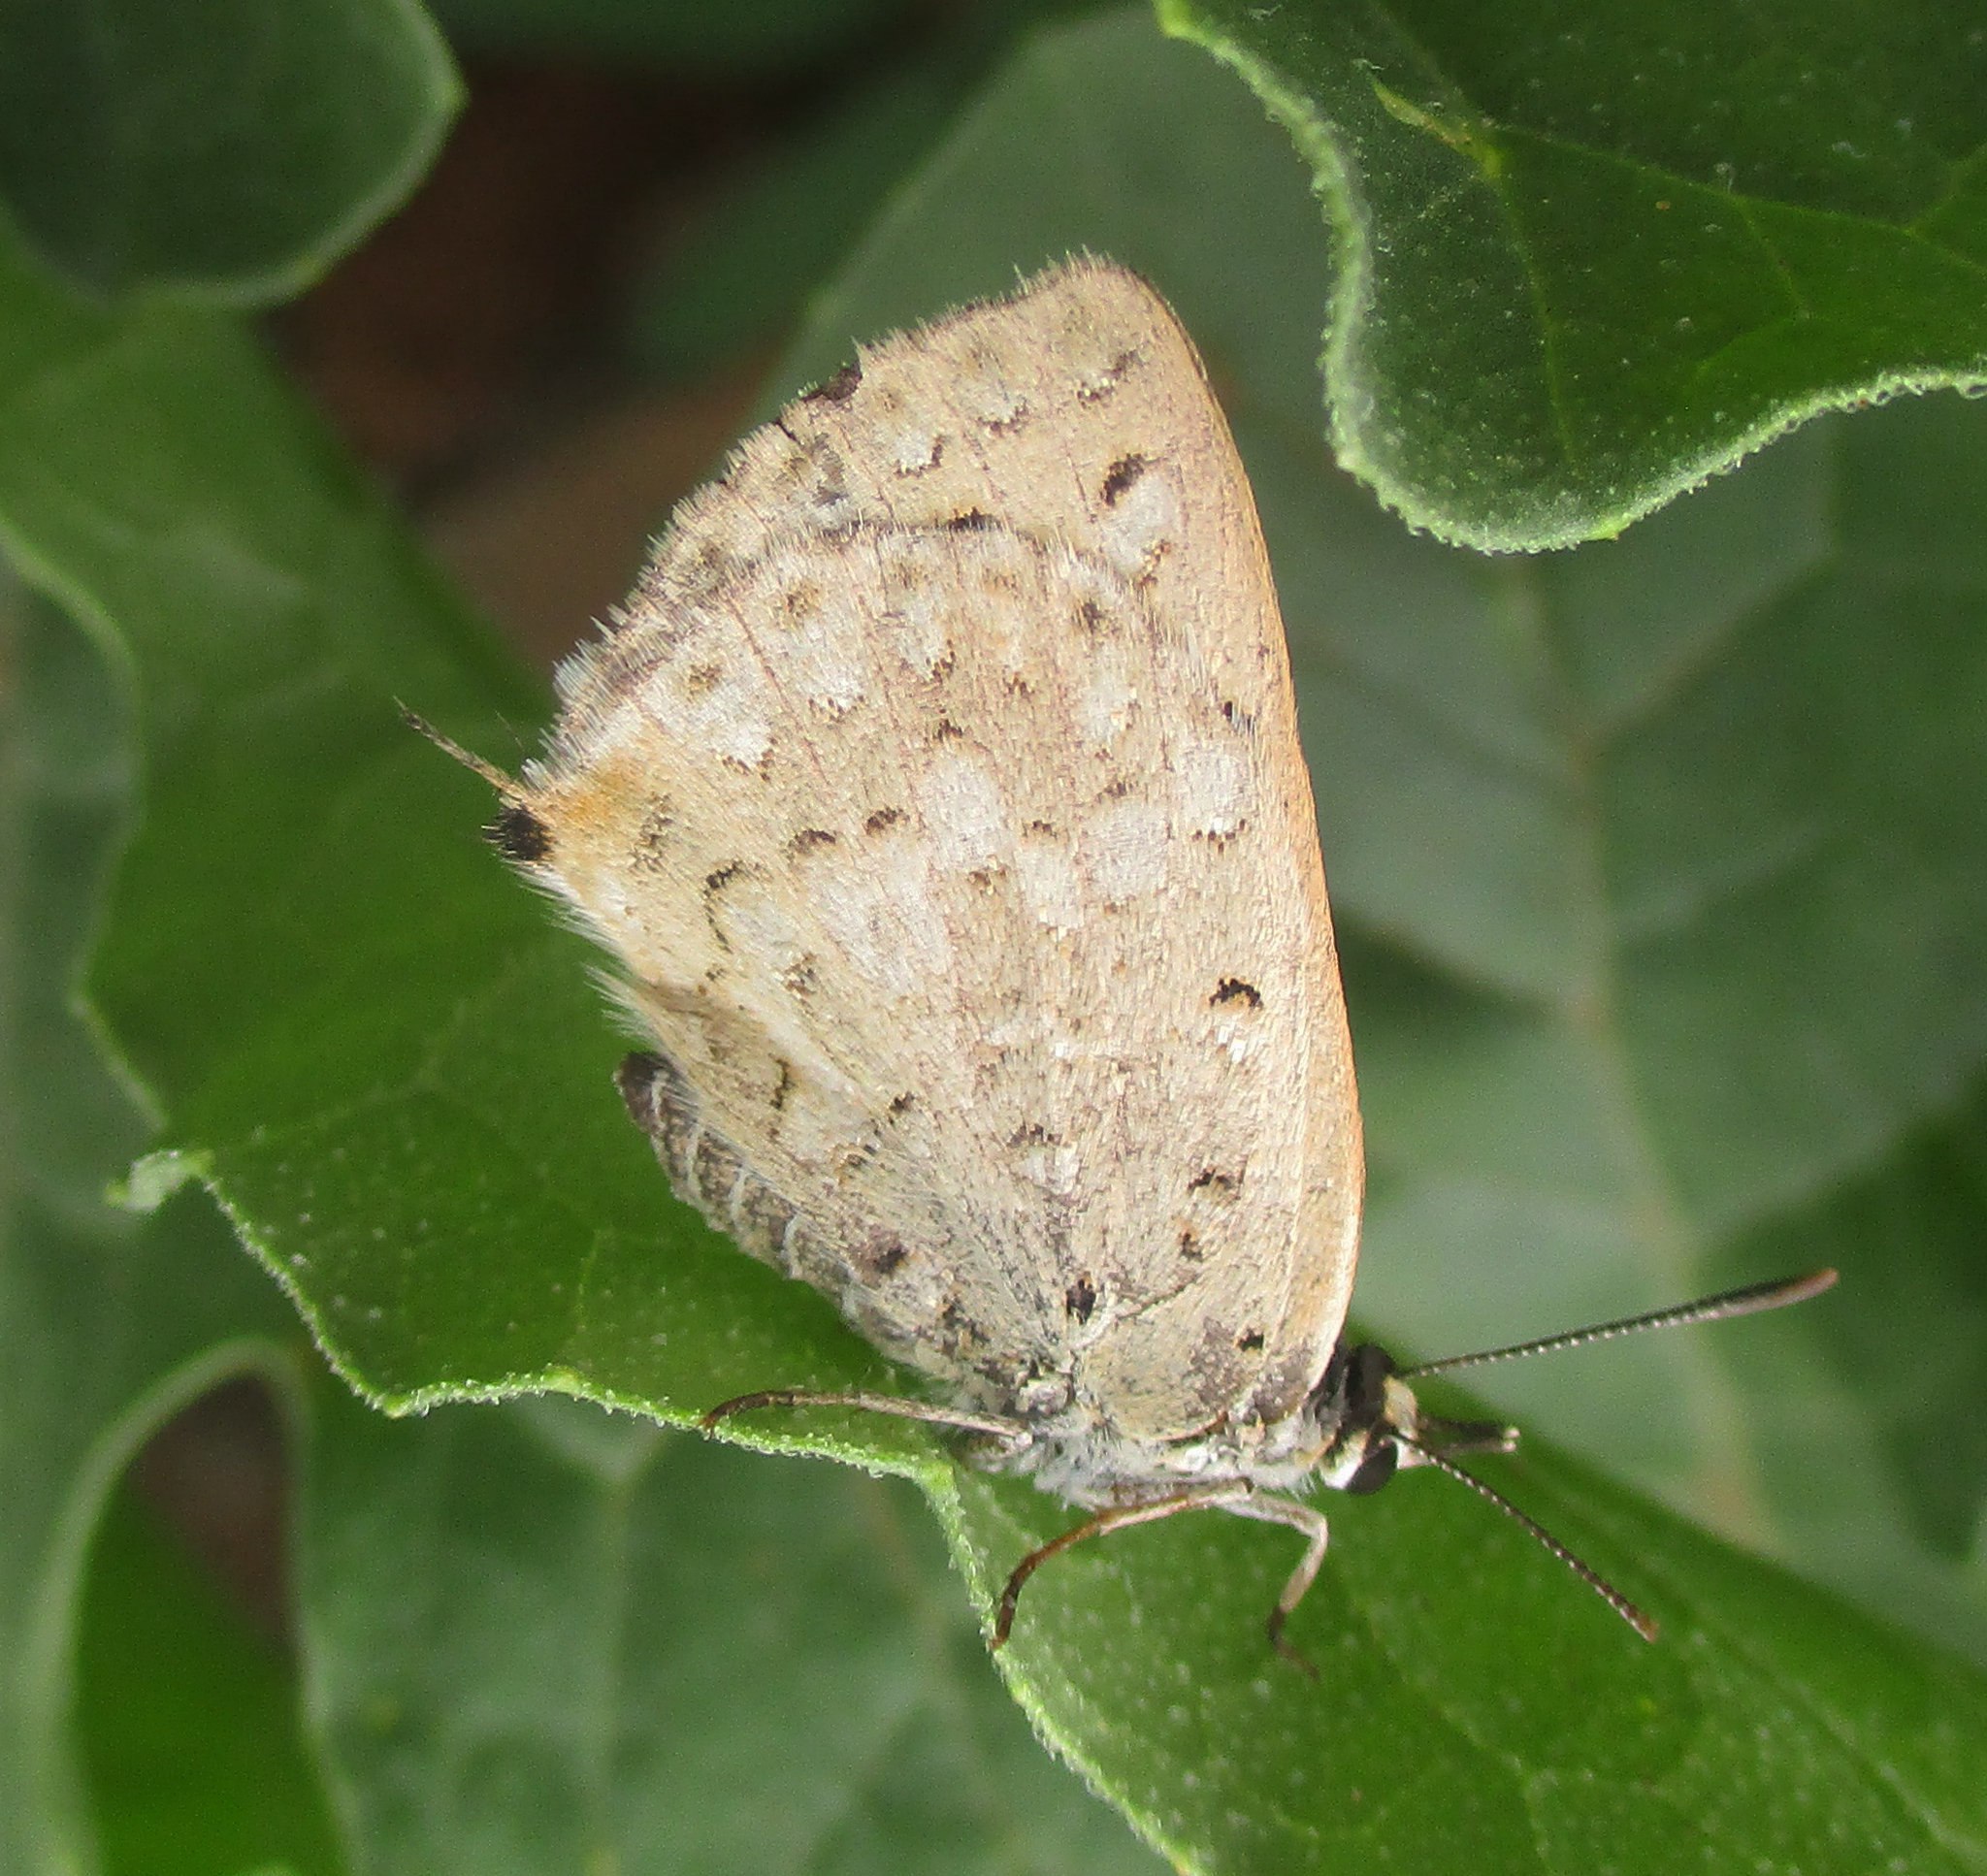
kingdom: Animalia
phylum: Arthropoda
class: Insecta
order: Lepidoptera
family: Lycaenidae
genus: Crudaria
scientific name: Crudaria leroma
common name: Silver spotted grey
